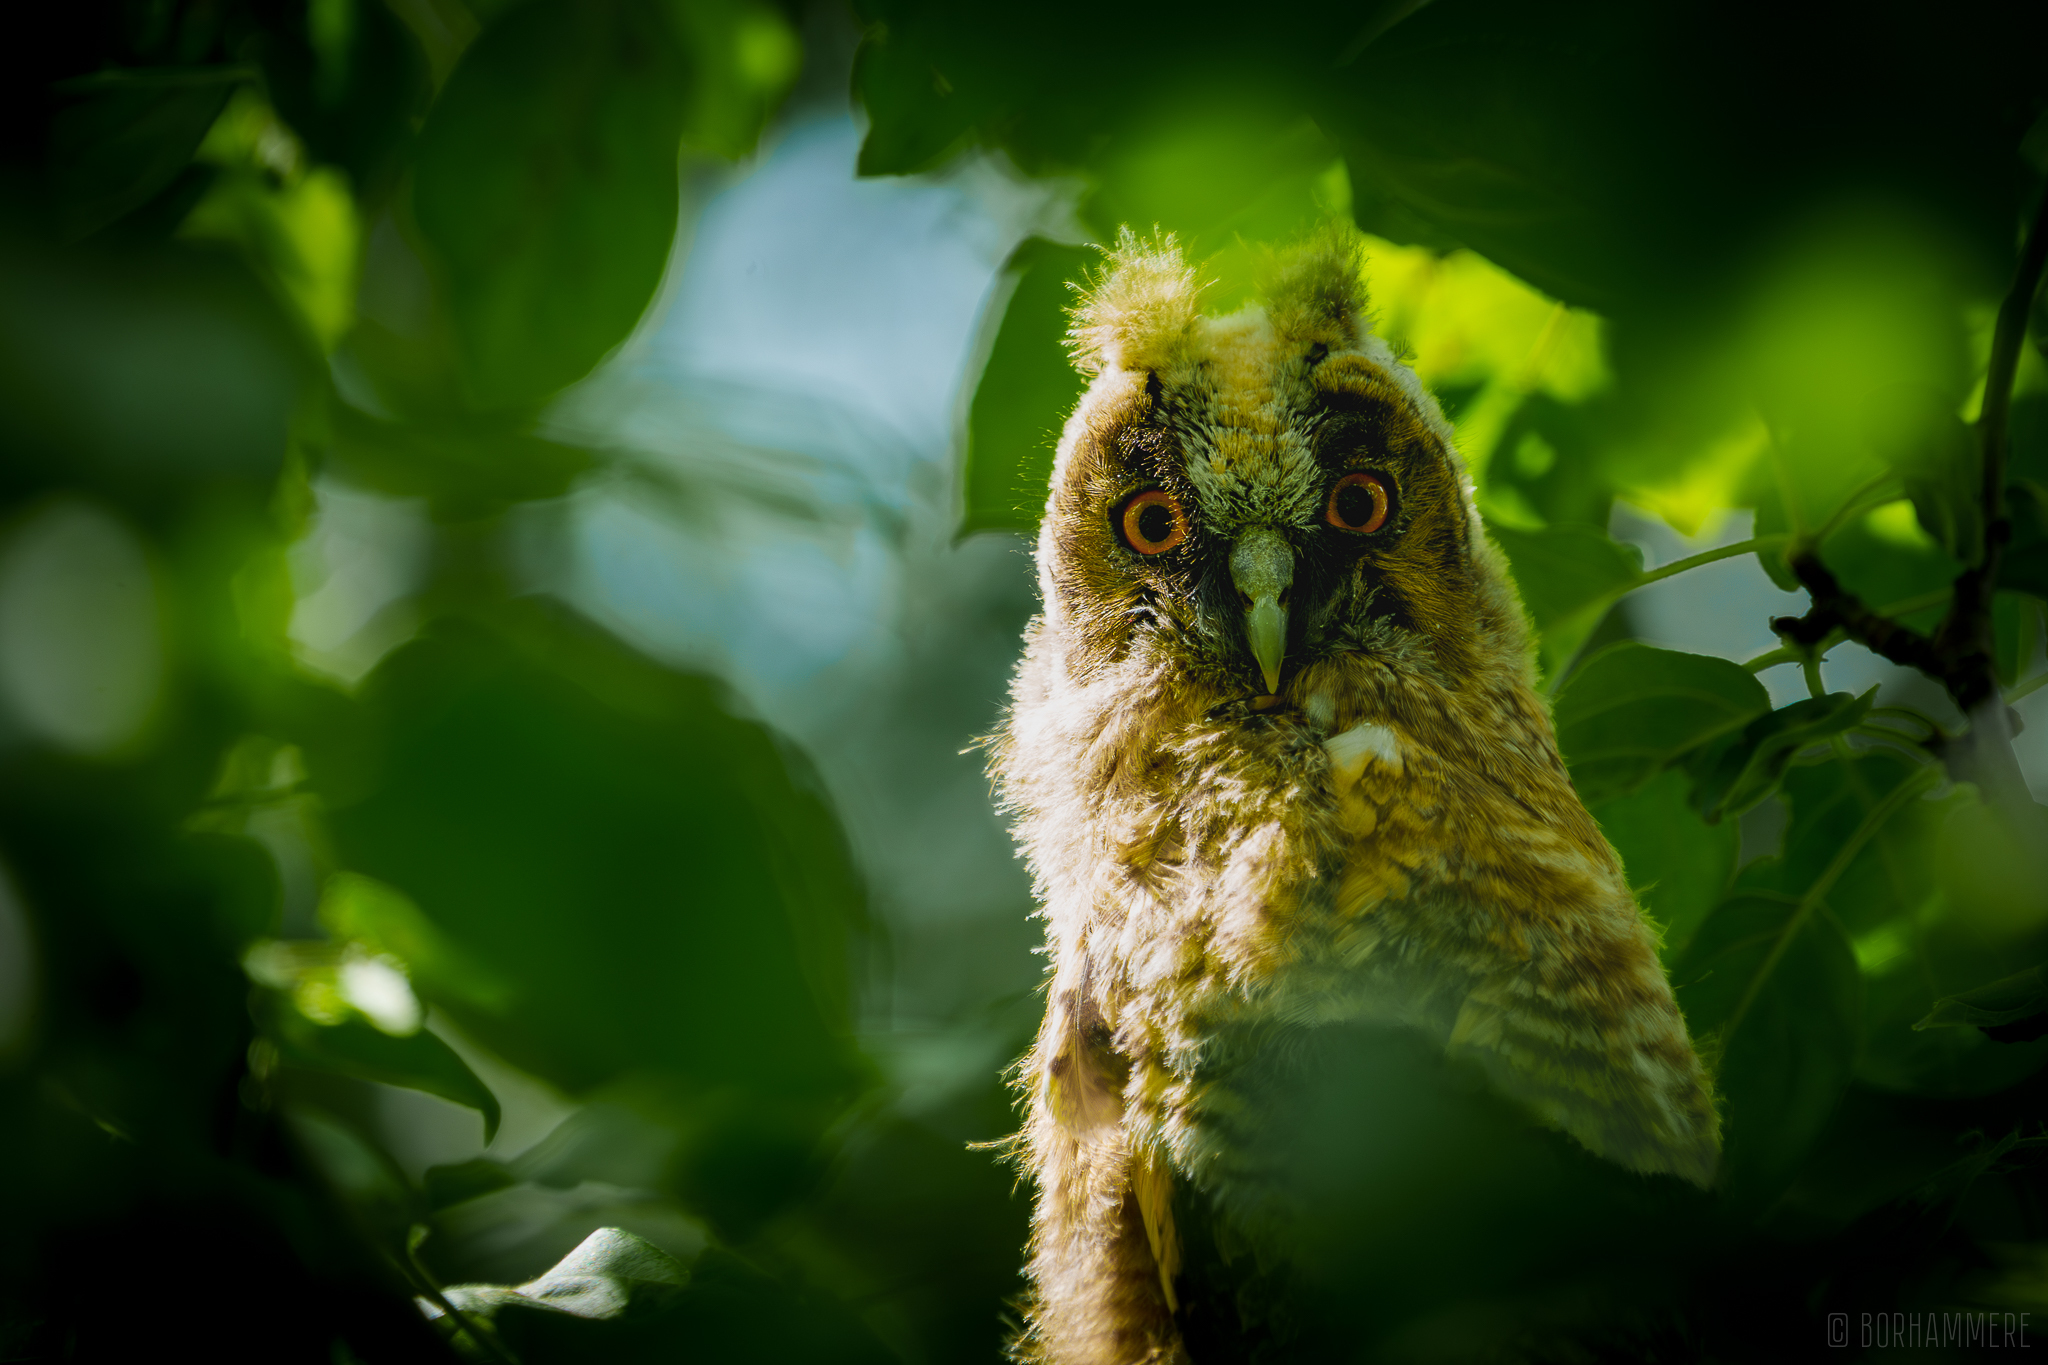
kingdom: Animalia
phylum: Chordata
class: Aves
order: Strigiformes
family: Strigidae
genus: Asio
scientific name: Asio otus
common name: Long-eared owl
